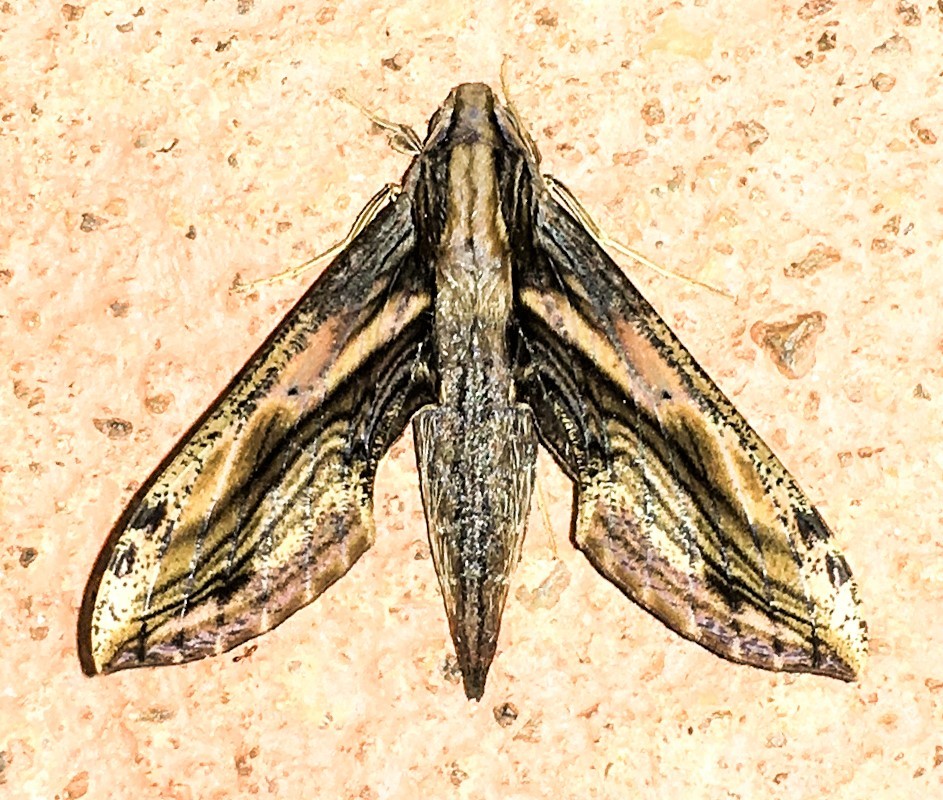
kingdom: Animalia
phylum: Arthropoda
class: Insecta
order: Lepidoptera
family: Sphingidae
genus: Xylophanes
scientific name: Xylophanes crenulatus
